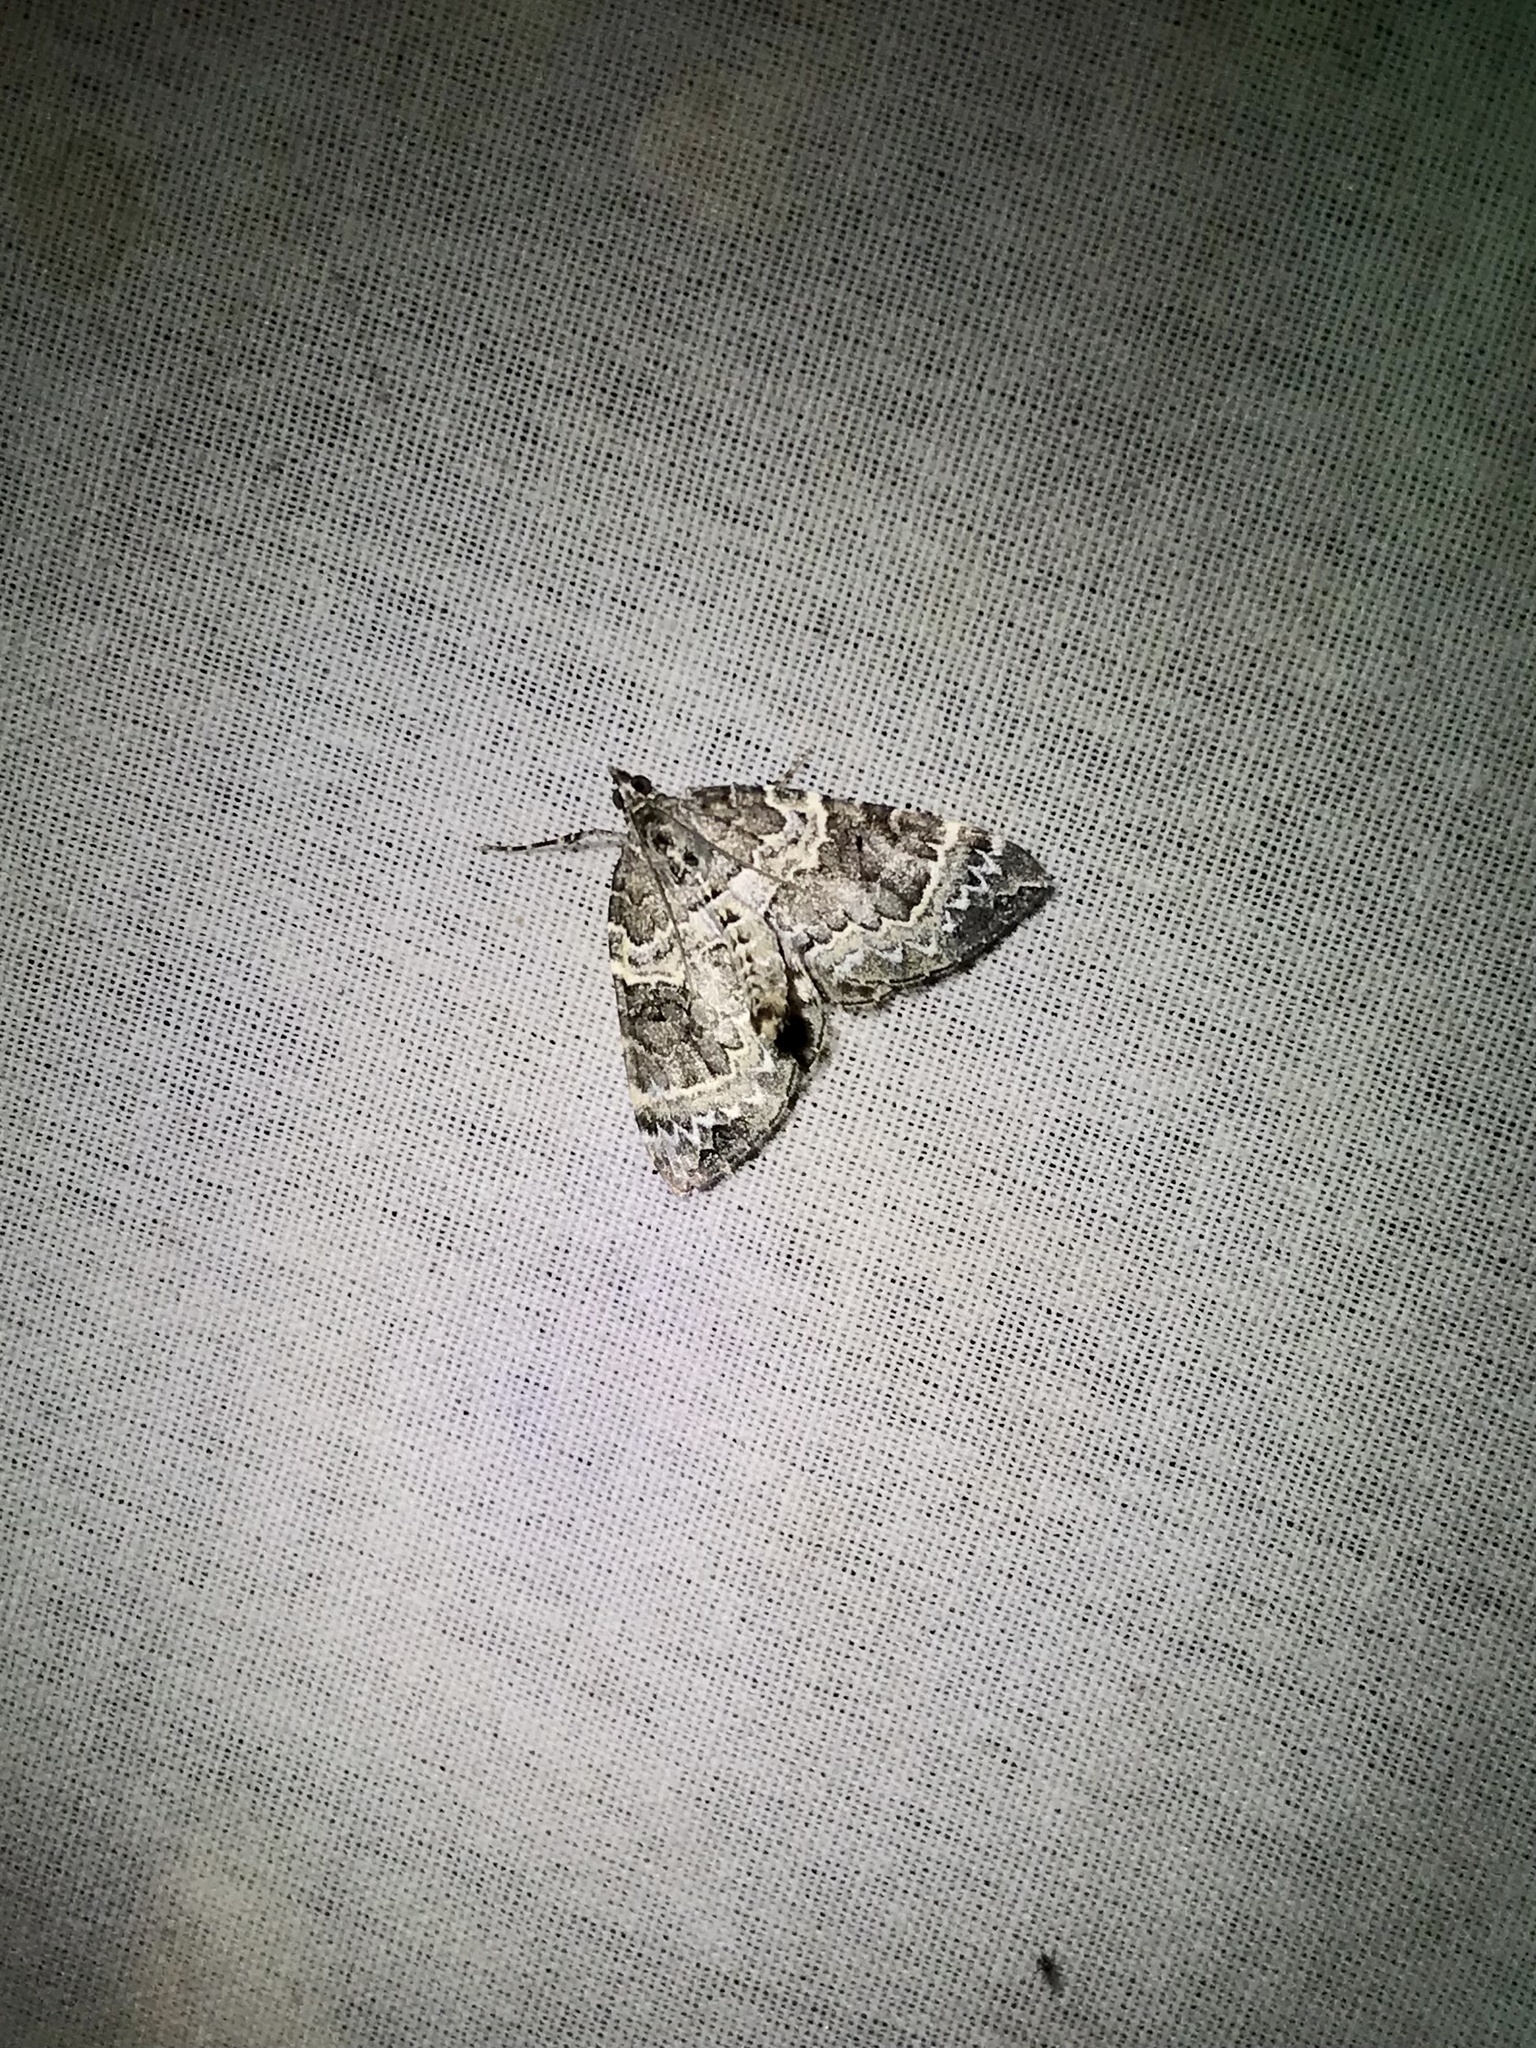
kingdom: Animalia
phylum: Arthropoda
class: Insecta
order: Lepidoptera
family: Geometridae
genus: Eulithis
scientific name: Eulithis explanata
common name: White eulithis
